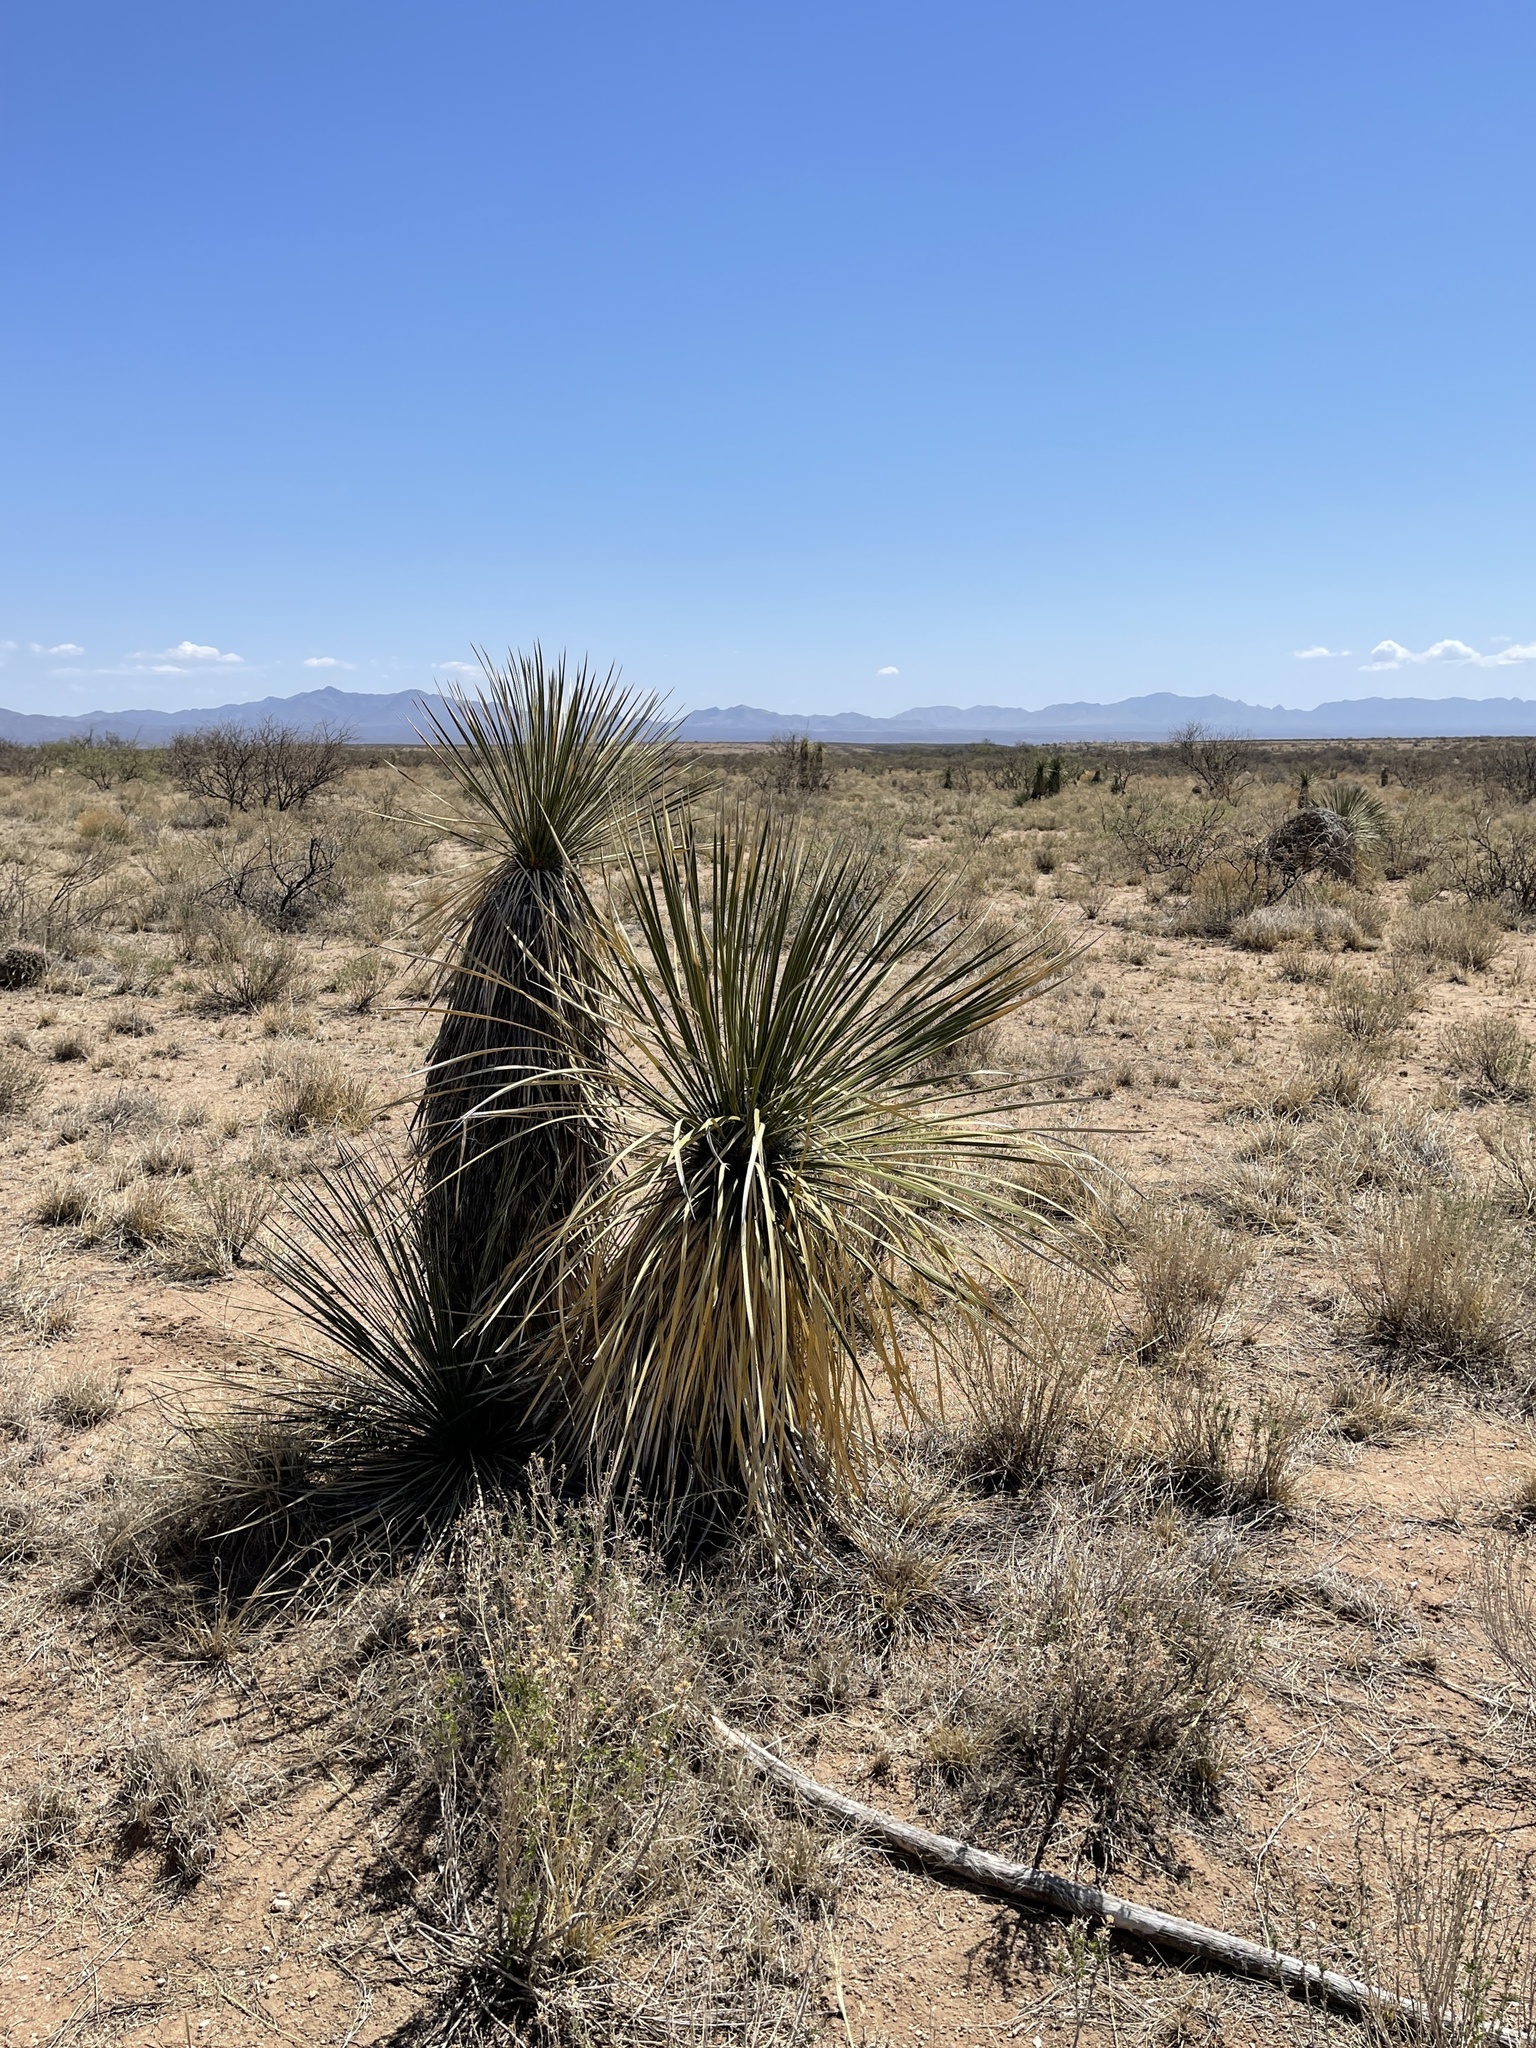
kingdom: Plantae
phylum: Tracheophyta
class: Liliopsida
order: Asparagales
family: Asparagaceae
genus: Yucca
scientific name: Yucca elata
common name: Palmella
